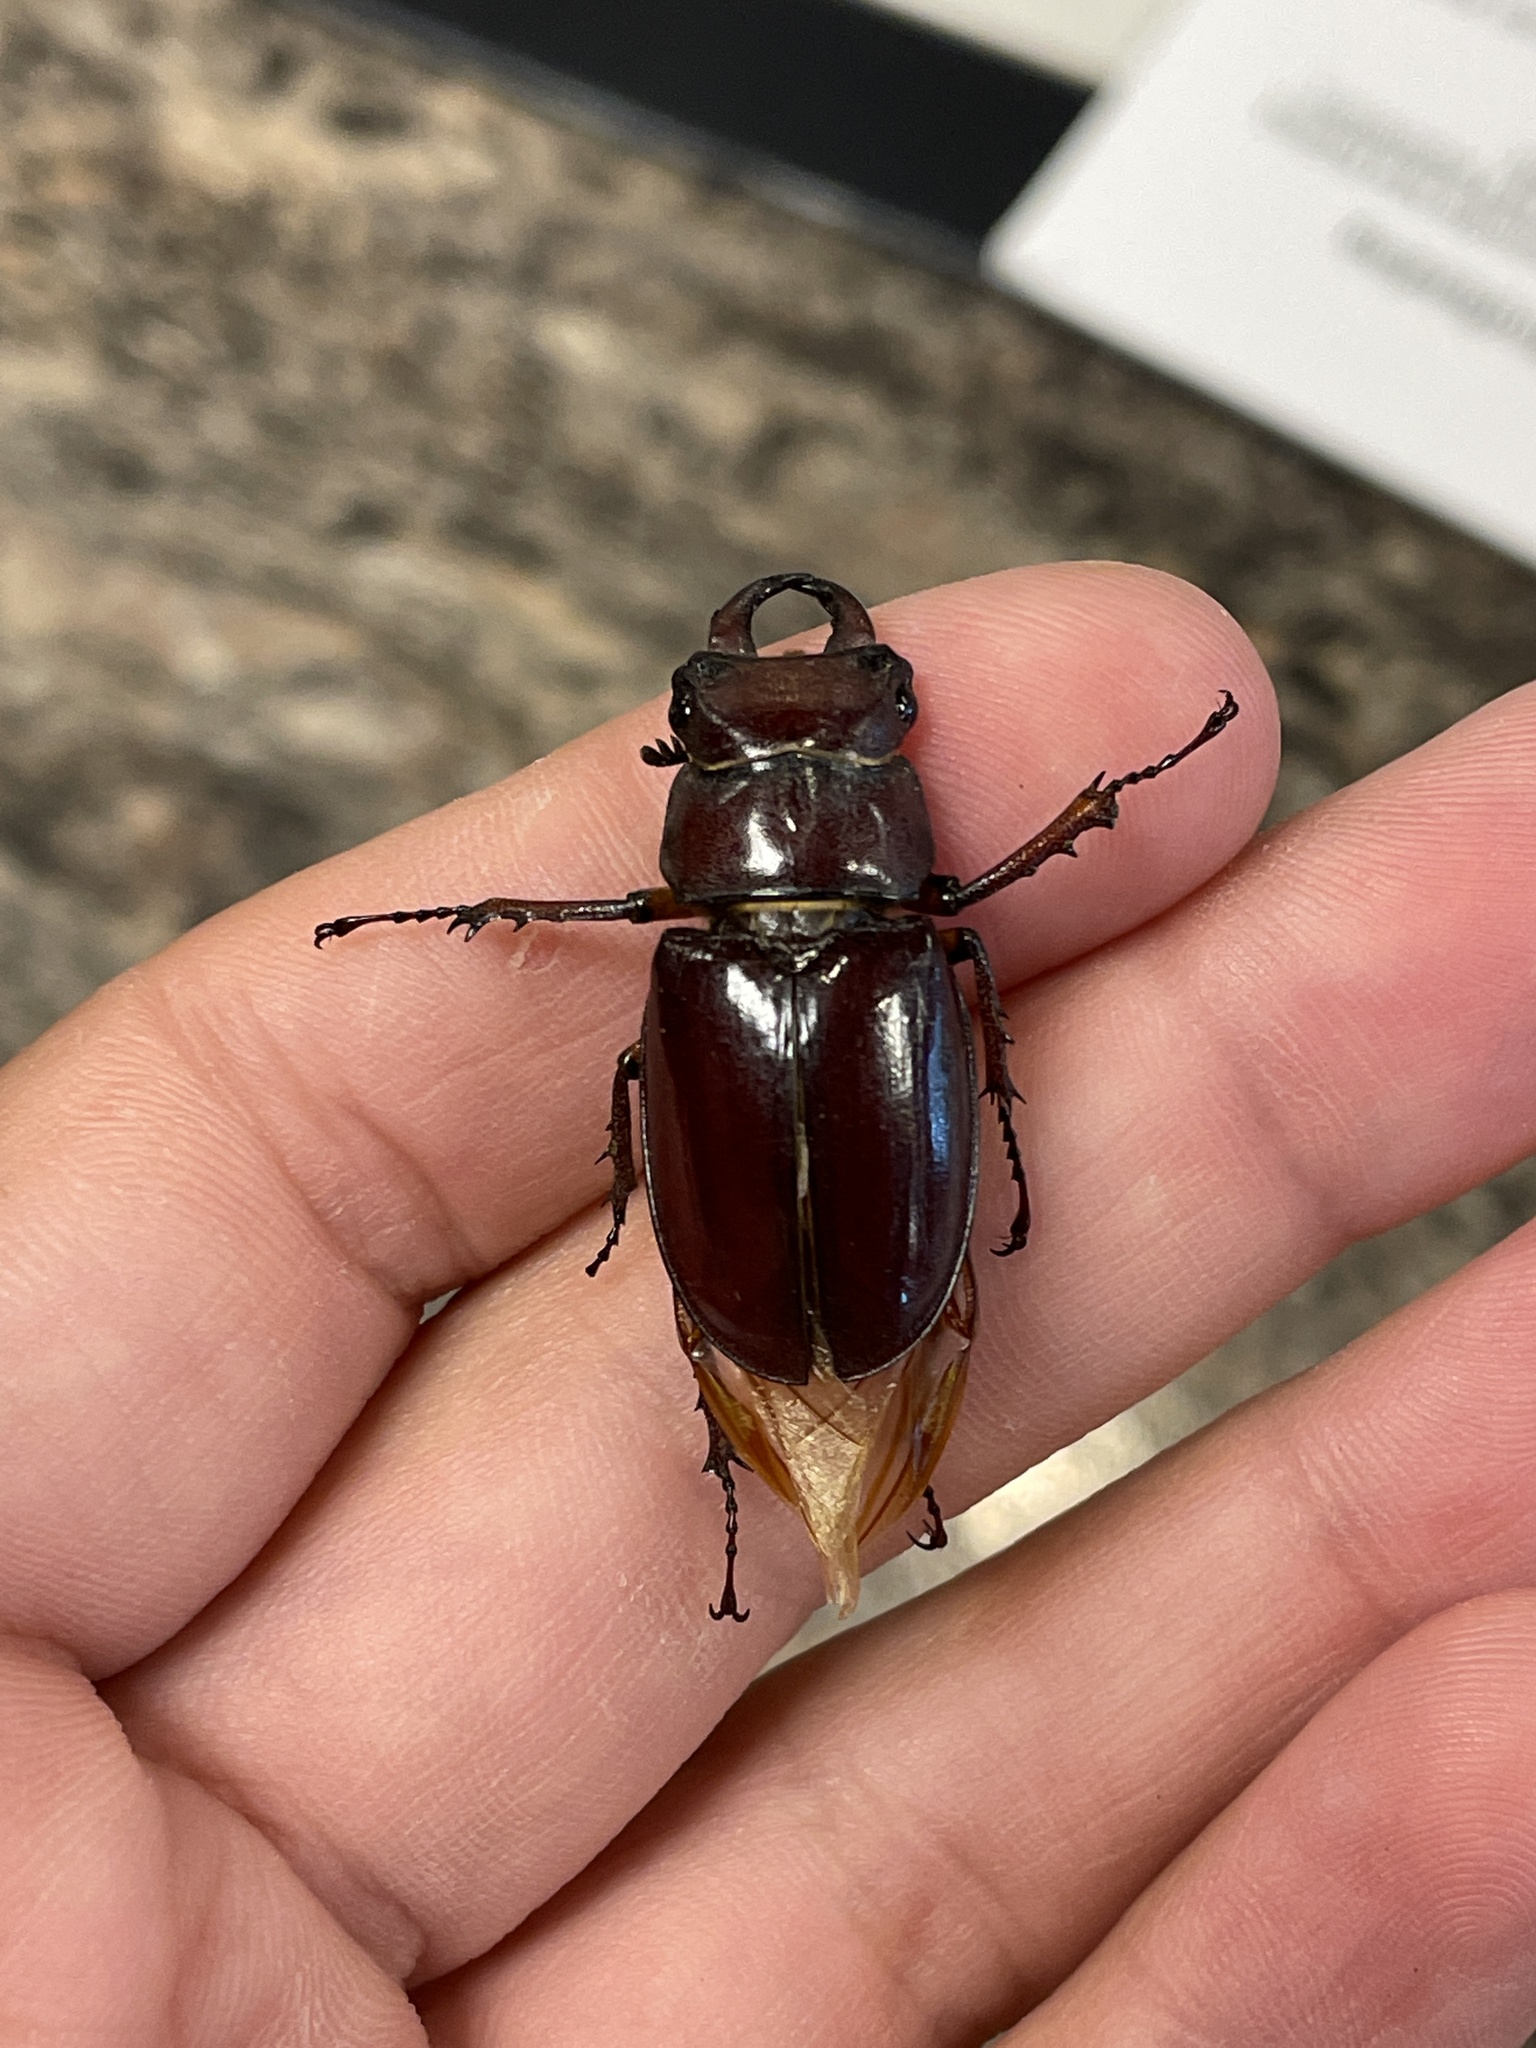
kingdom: Animalia
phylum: Arthropoda
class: Insecta
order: Coleoptera
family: Lucanidae
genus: Lucanus
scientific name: Lucanus capreolus
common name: Stag beetle
